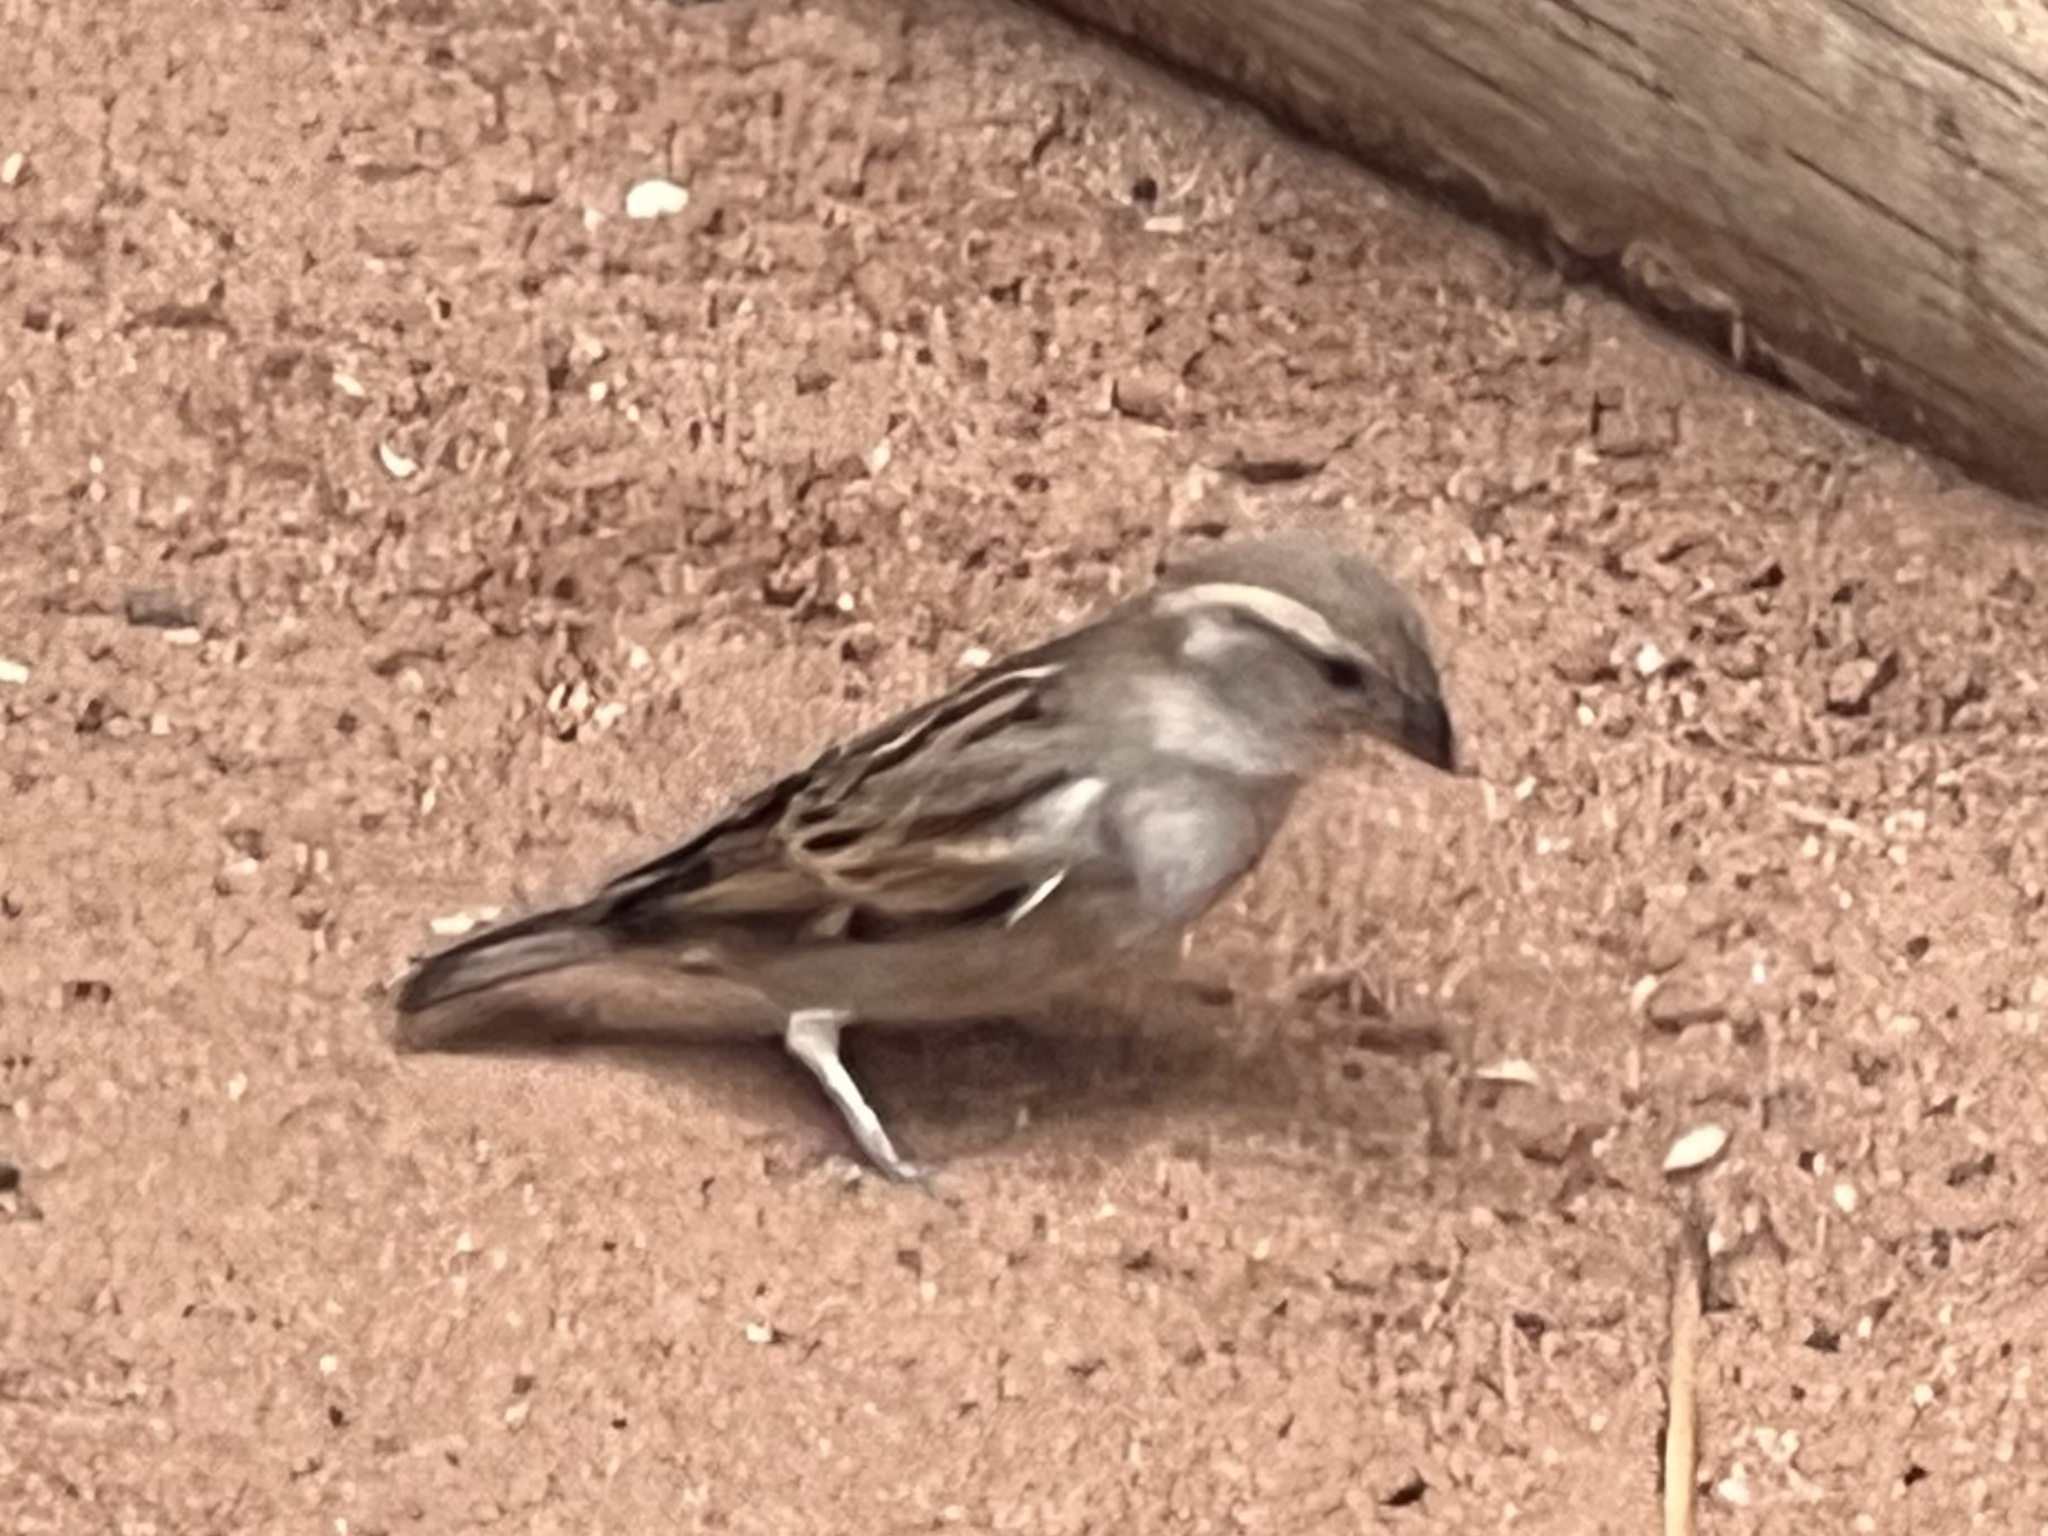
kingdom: Animalia
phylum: Chordata
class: Aves
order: Passeriformes
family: Passeridae
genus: Passer
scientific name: Passer domesticus
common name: House sparrow
